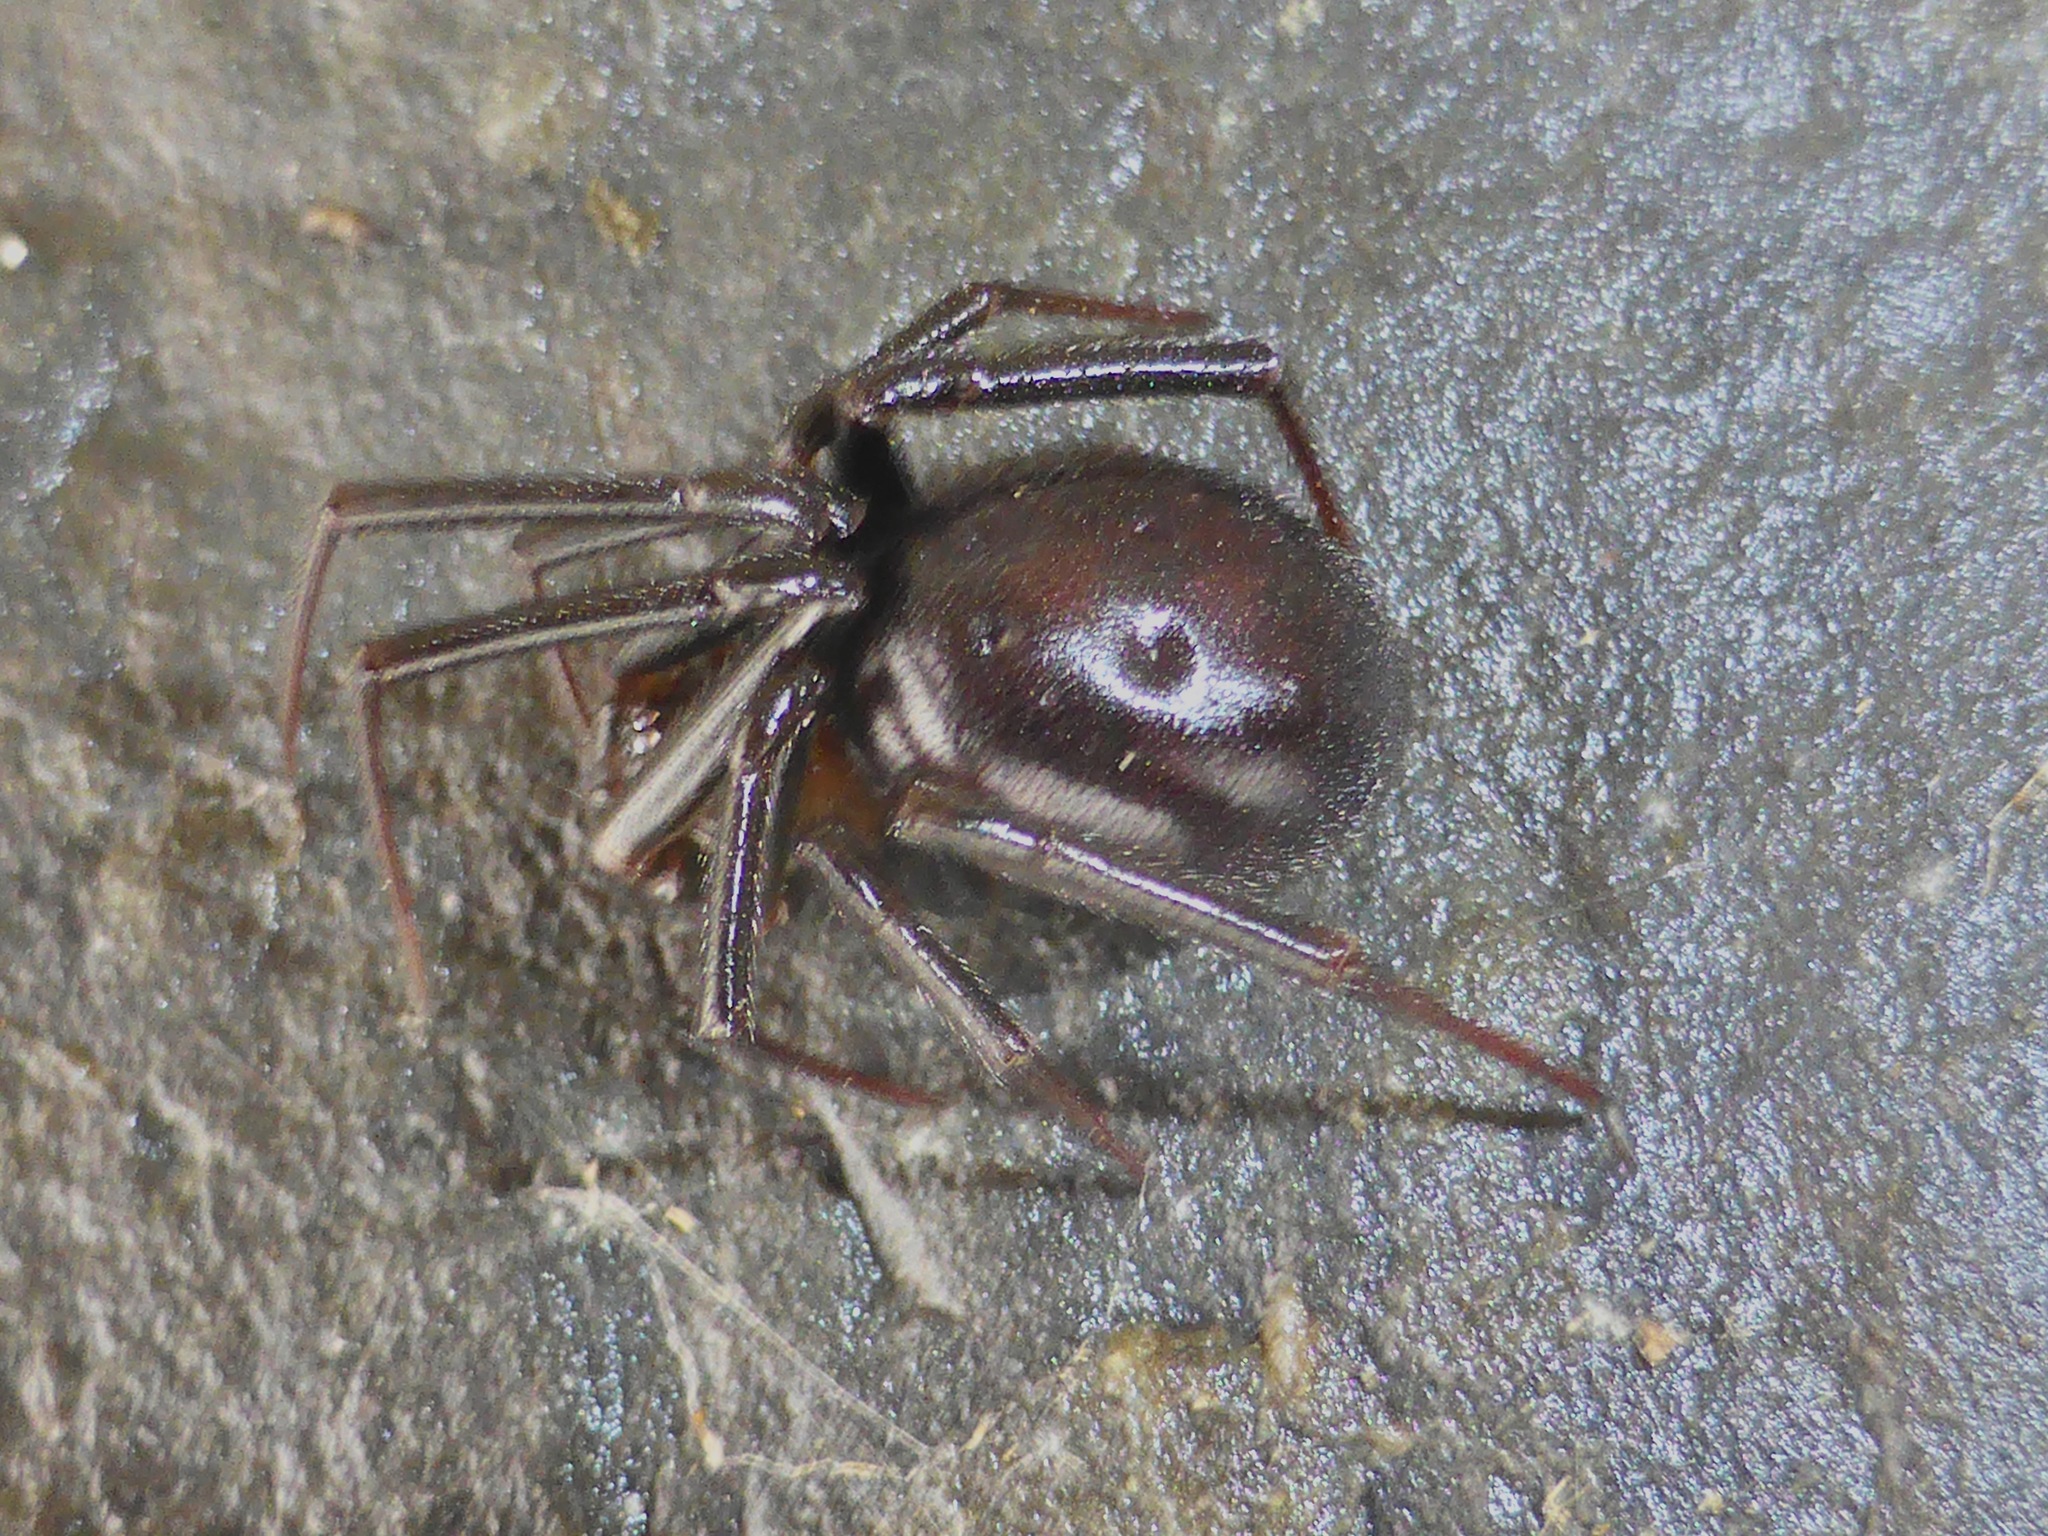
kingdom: Animalia
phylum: Arthropoda
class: Arachnida
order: Araneae
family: Theridiidae
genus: Steatoda
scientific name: Steatoda capensis
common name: Cobweb weaver
